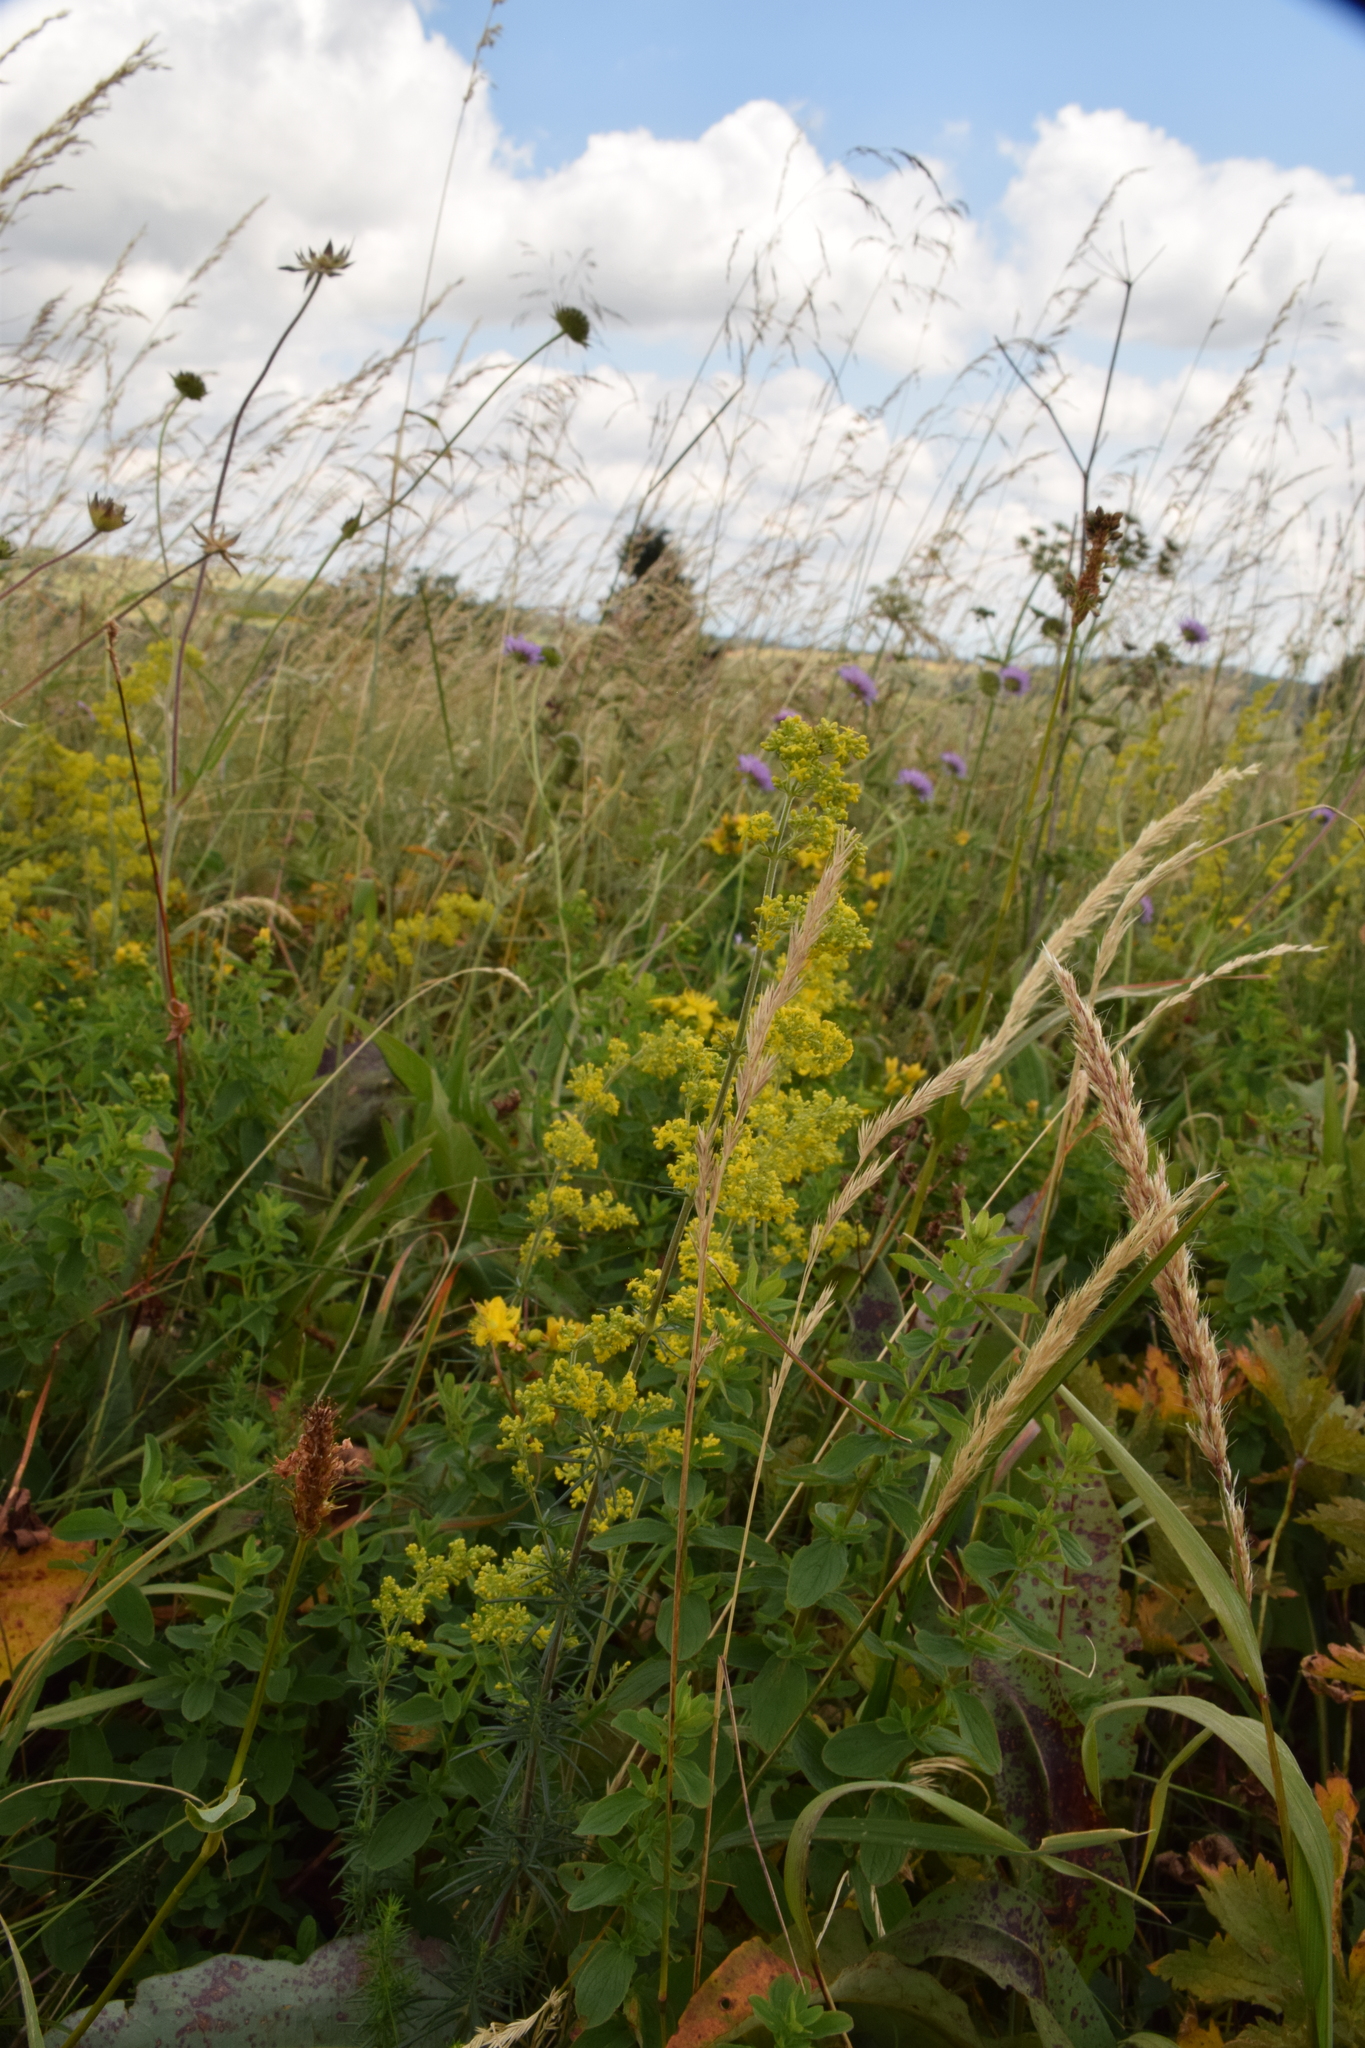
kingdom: Plantae
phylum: Tracheophyta
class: Magnoliopsida
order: Gentianales
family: Rubiaceae
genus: Galium
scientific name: Galium verum
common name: Lady's bedstraw
